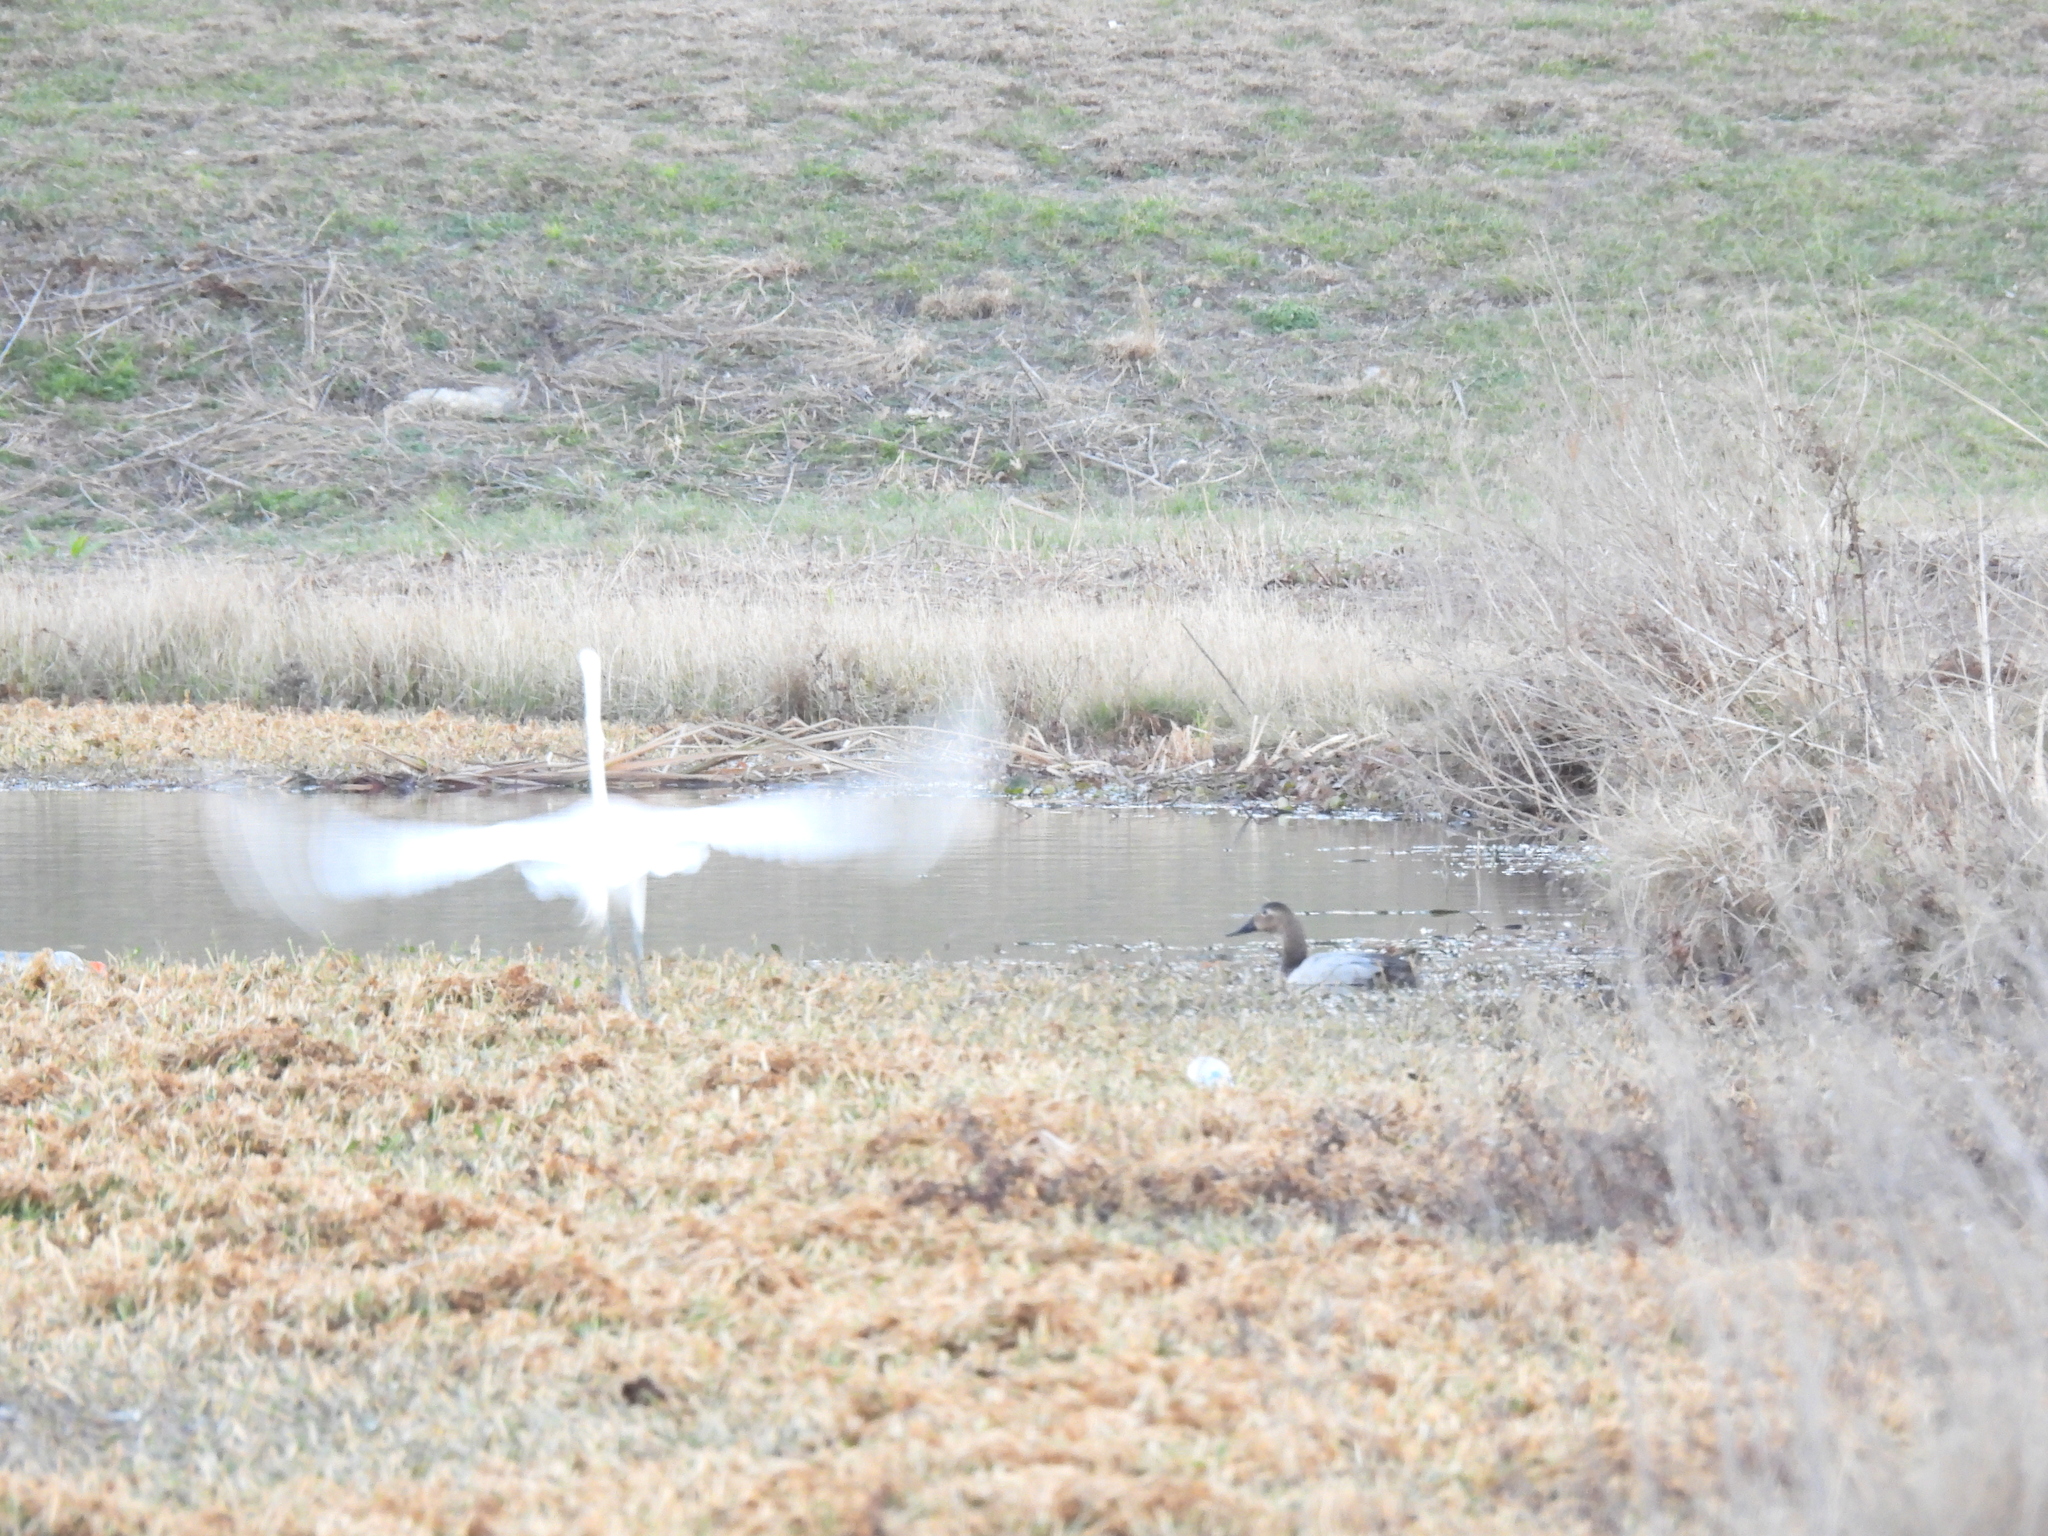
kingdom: Animalia
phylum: Chordata
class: Aves
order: Pelecaniformes
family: Ardeidae
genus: Ardea
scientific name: Ardea alba
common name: Great egret
